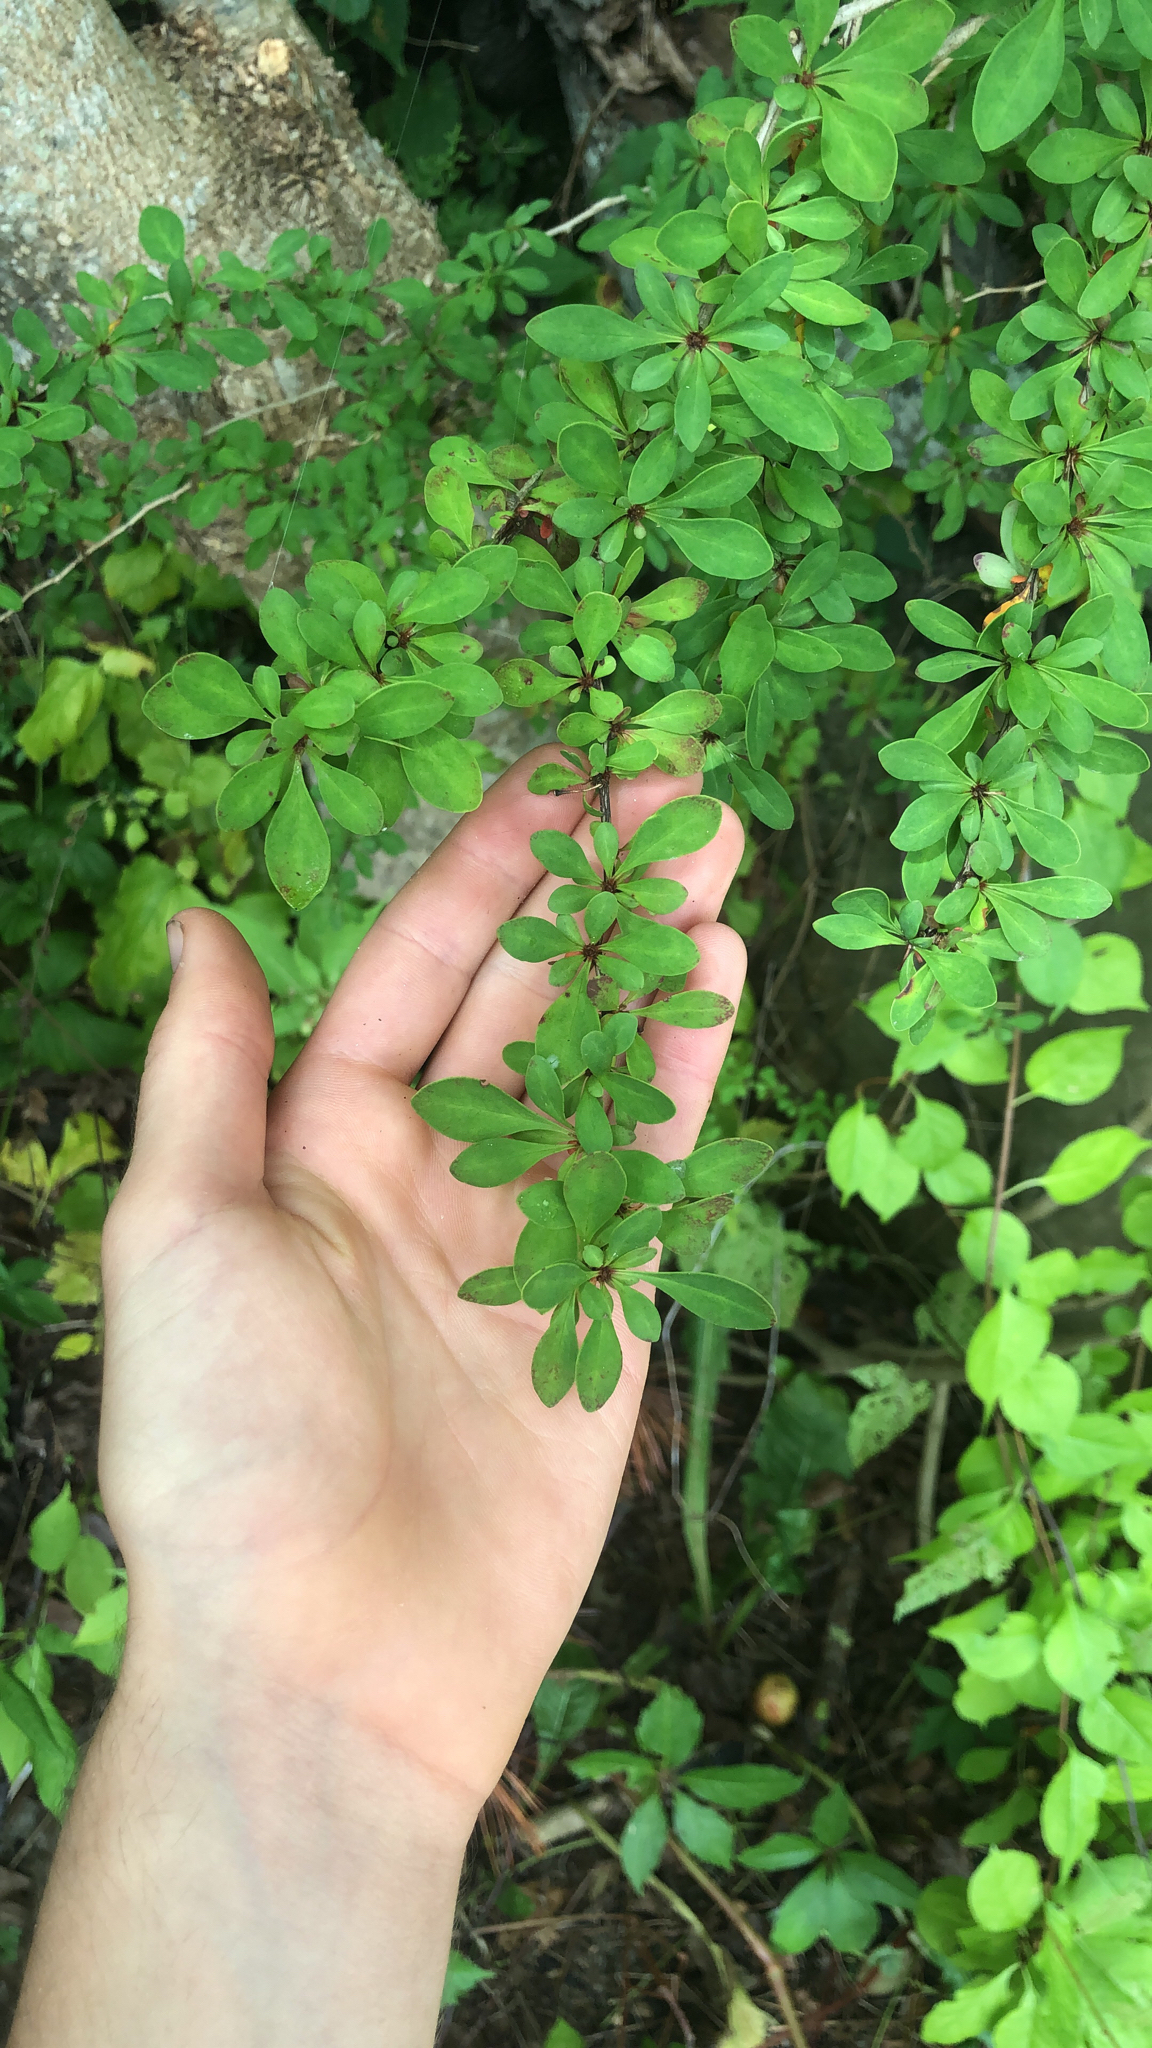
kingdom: Plantae
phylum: Tracheophyta
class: Magnoliopsida
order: Ranunculales
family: Berberidaceae
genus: Berberis
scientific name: Berberis thunbergii
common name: Japanese barberry
